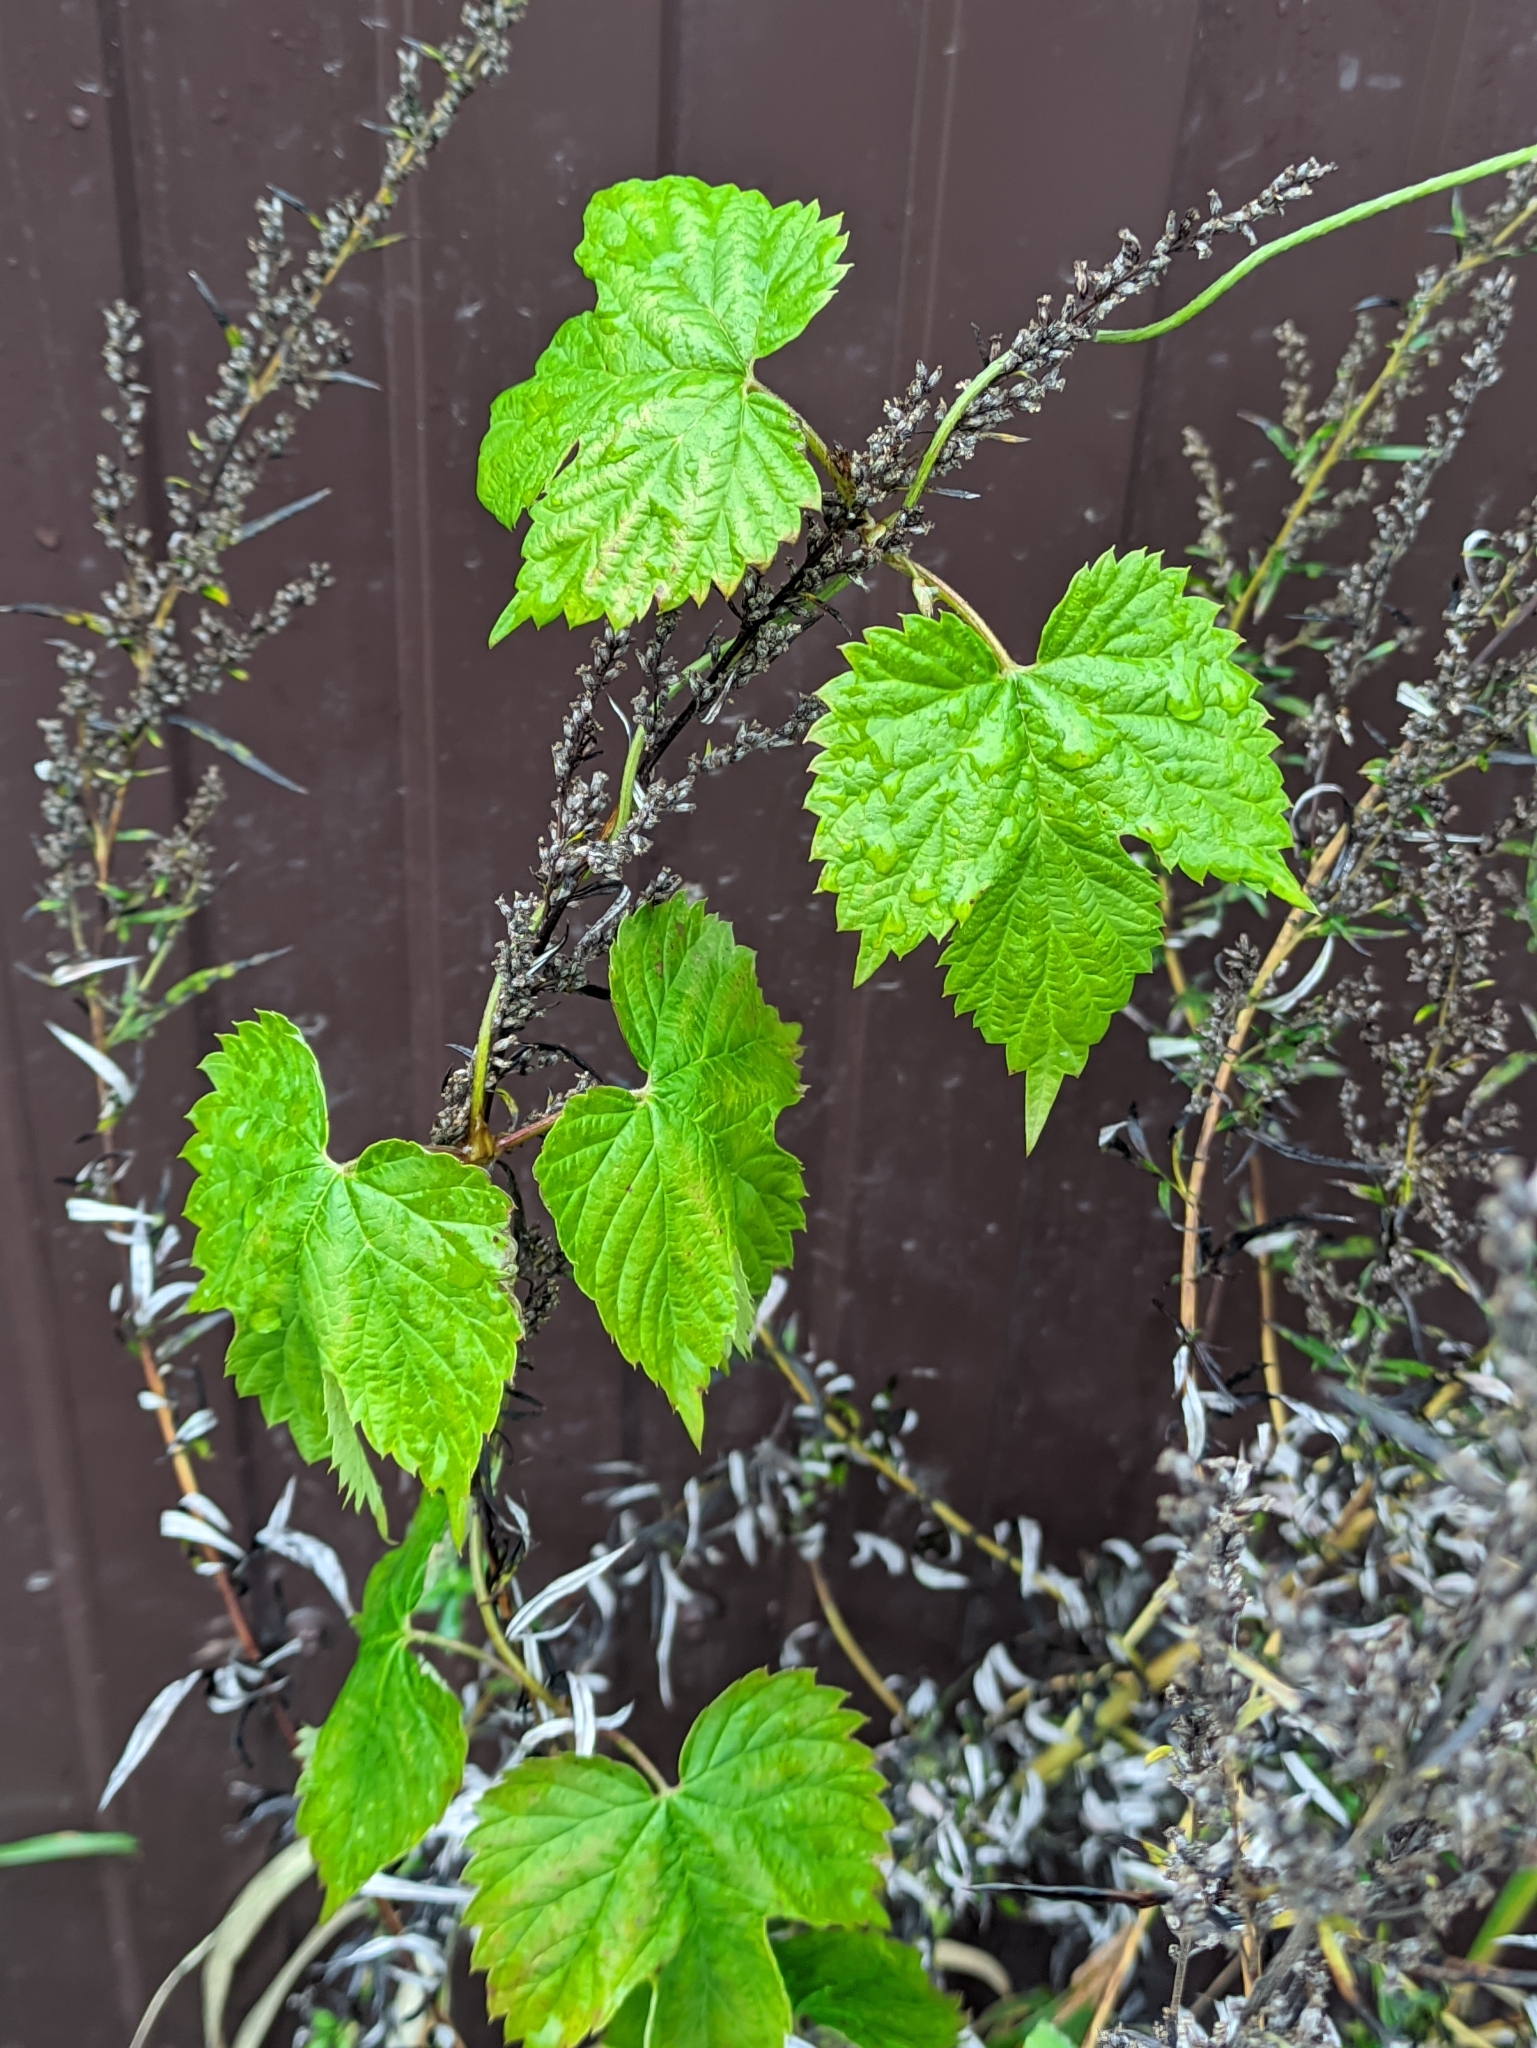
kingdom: Plantae
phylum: Tracheophyta
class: Magnoliopsida
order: Rosales
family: Cannabaceae
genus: Humulus
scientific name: Humulus lupulus
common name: Hop
